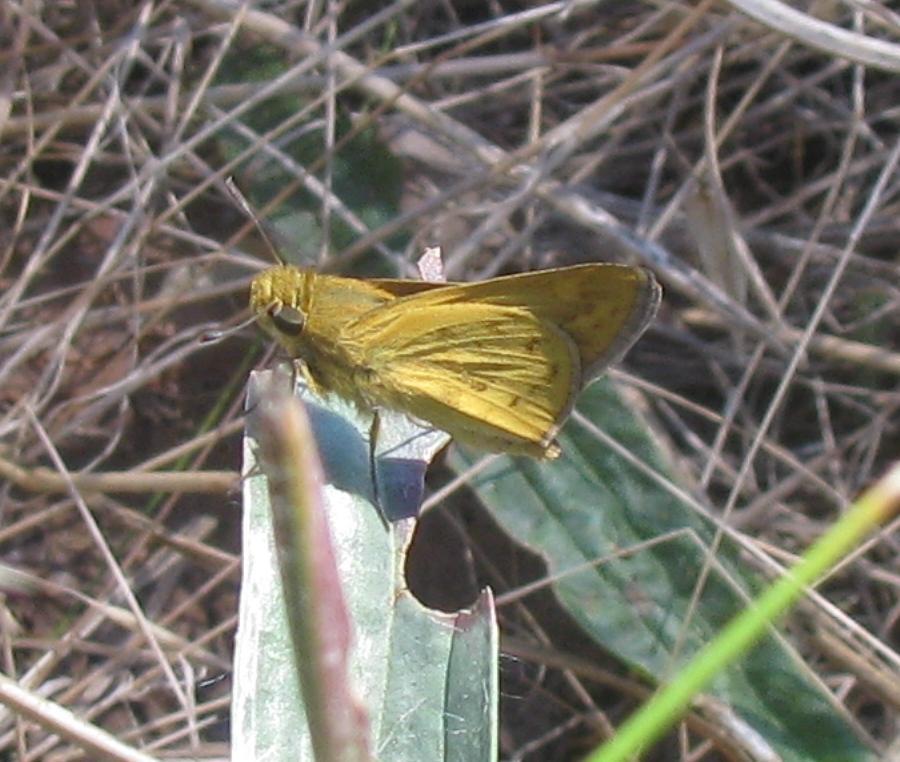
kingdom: Animalia
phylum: Arthropoda
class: Insecta
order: Lepidoptera
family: Hesperiidae
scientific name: Hesperiidae
